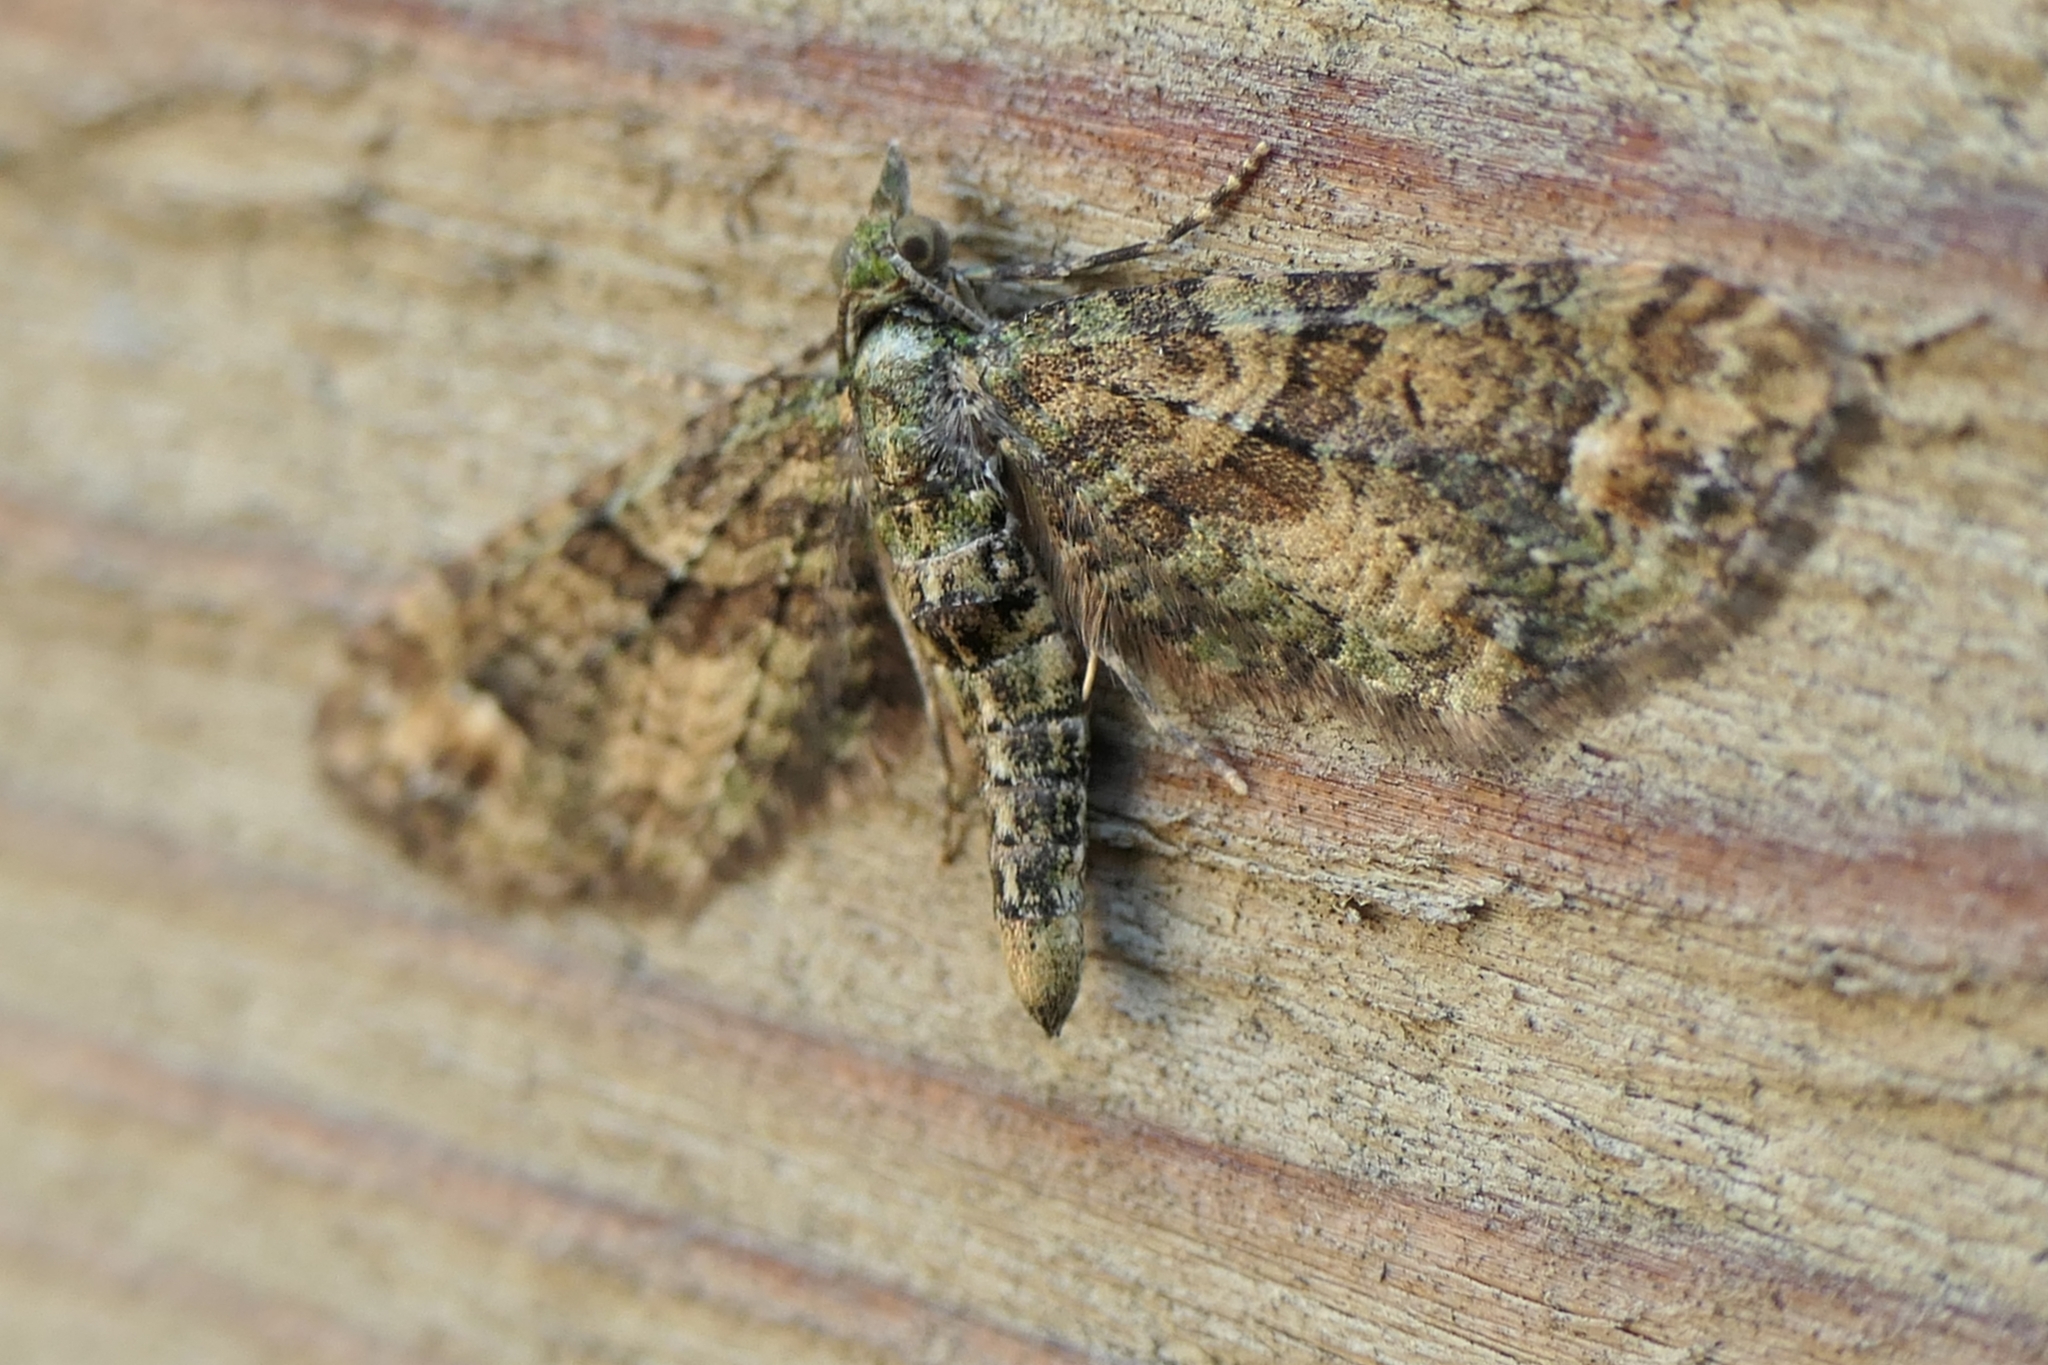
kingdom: Animalia
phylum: Arthropoda
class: Insecta
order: Lepidoptera
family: Geometridae
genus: Idaea
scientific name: Idaea mutanda
